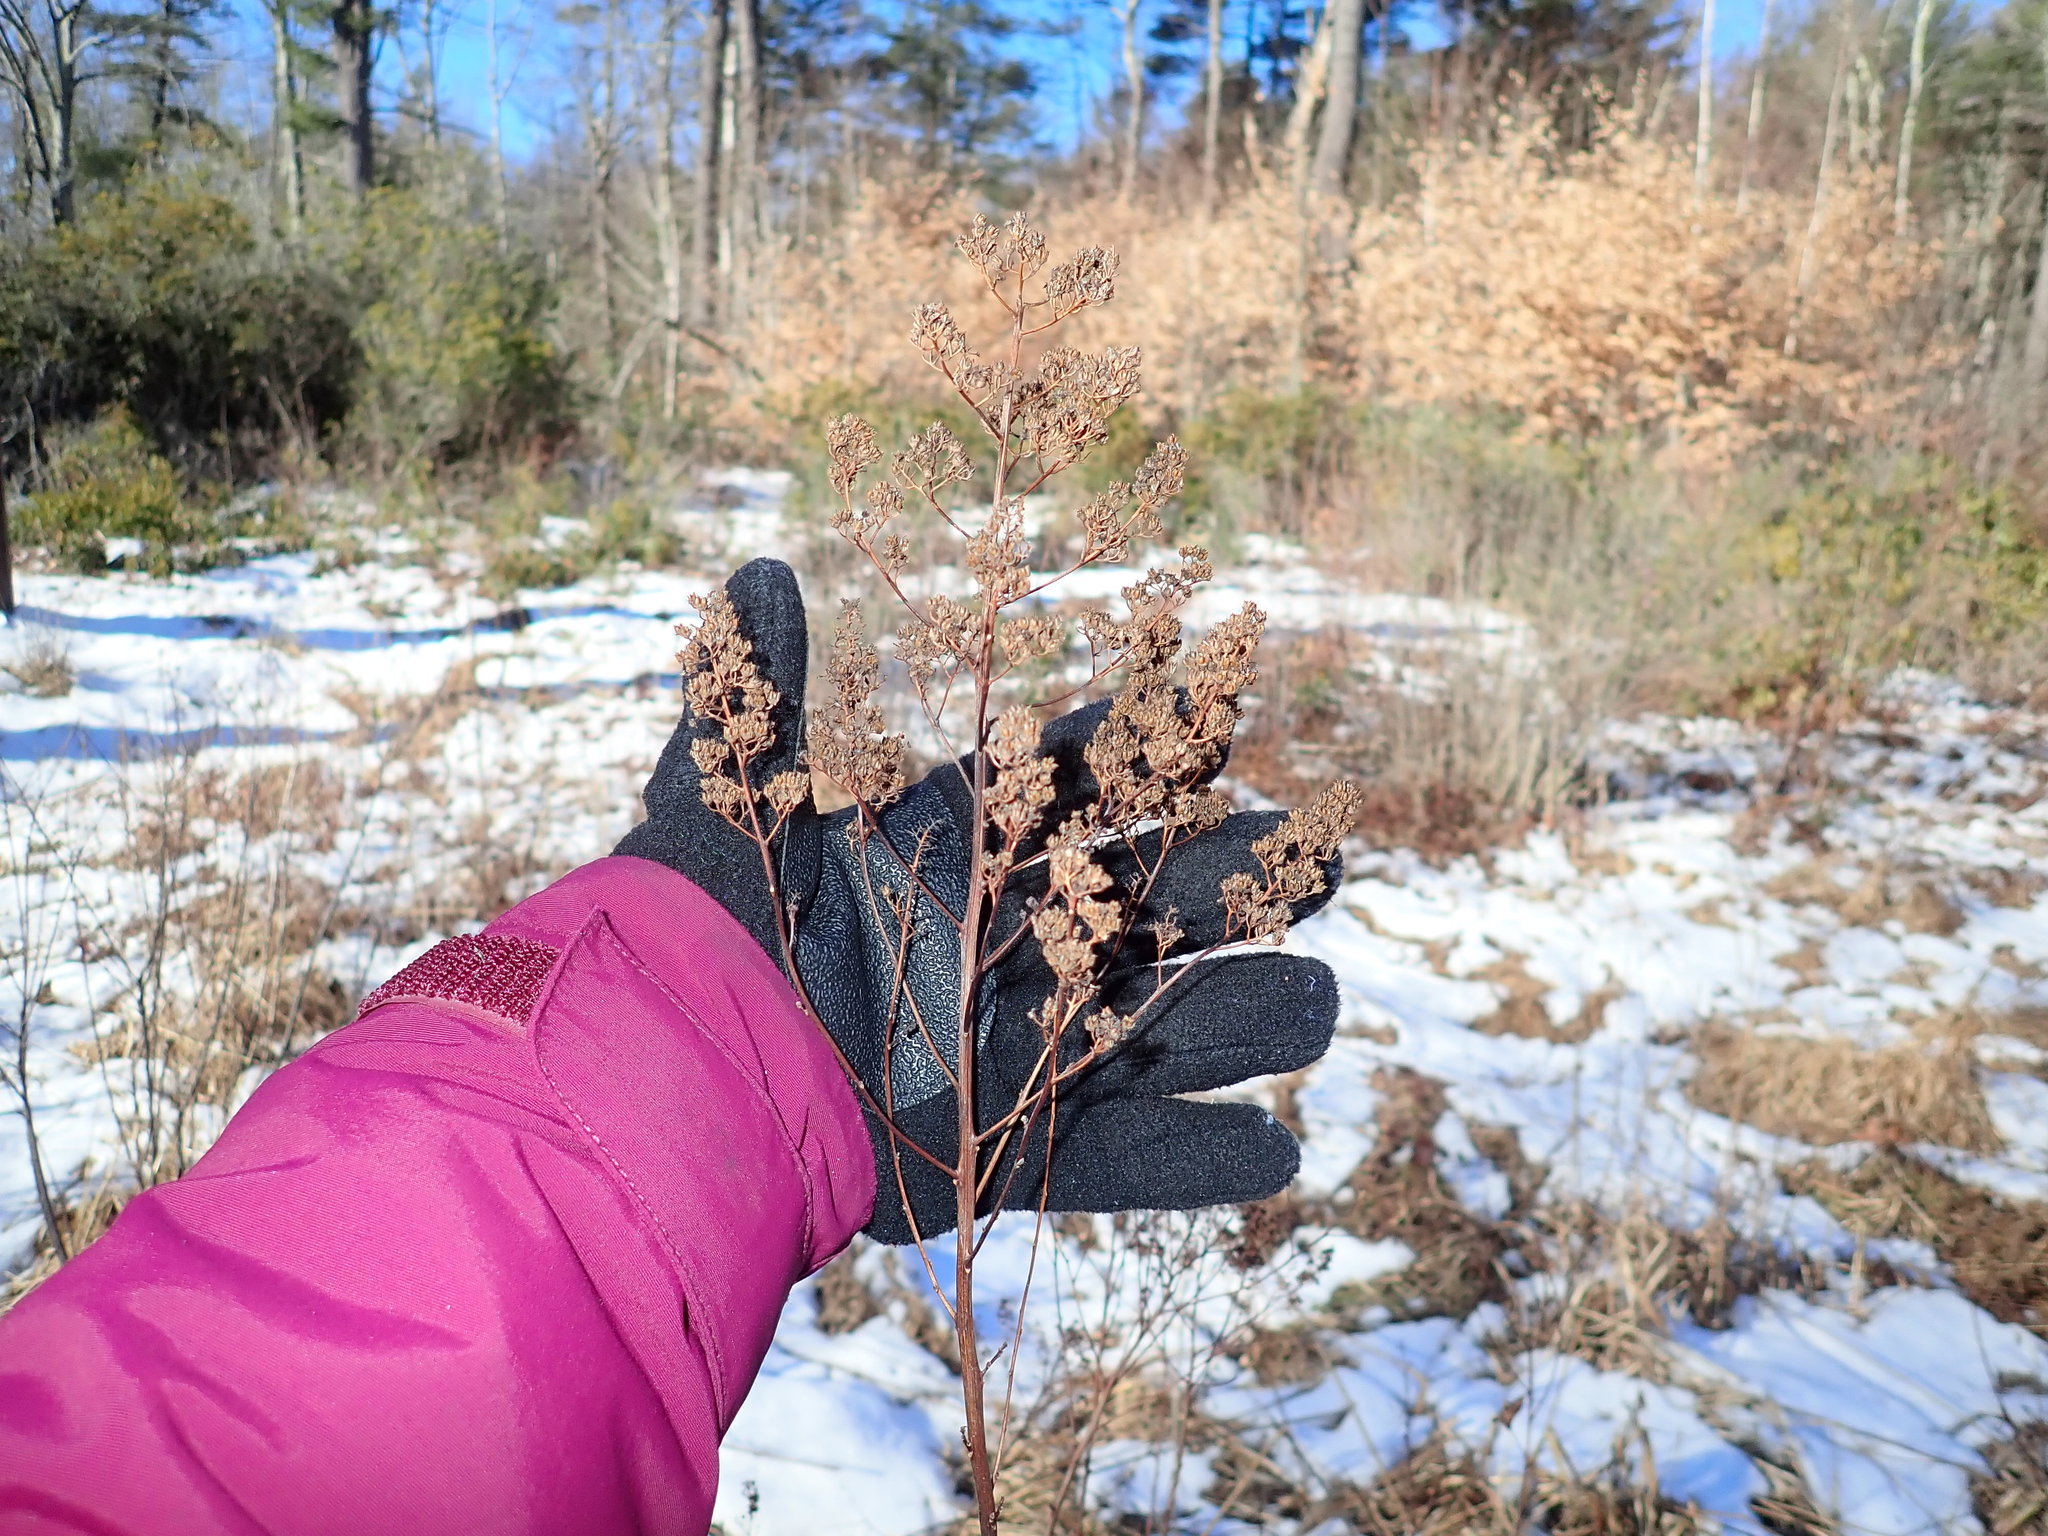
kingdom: Plantae
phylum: Tracheophyta
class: Magnoliopsida
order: Rosales
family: Rosaceae
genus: Spiraea
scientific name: Spiraea alba
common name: Pale bridewort
